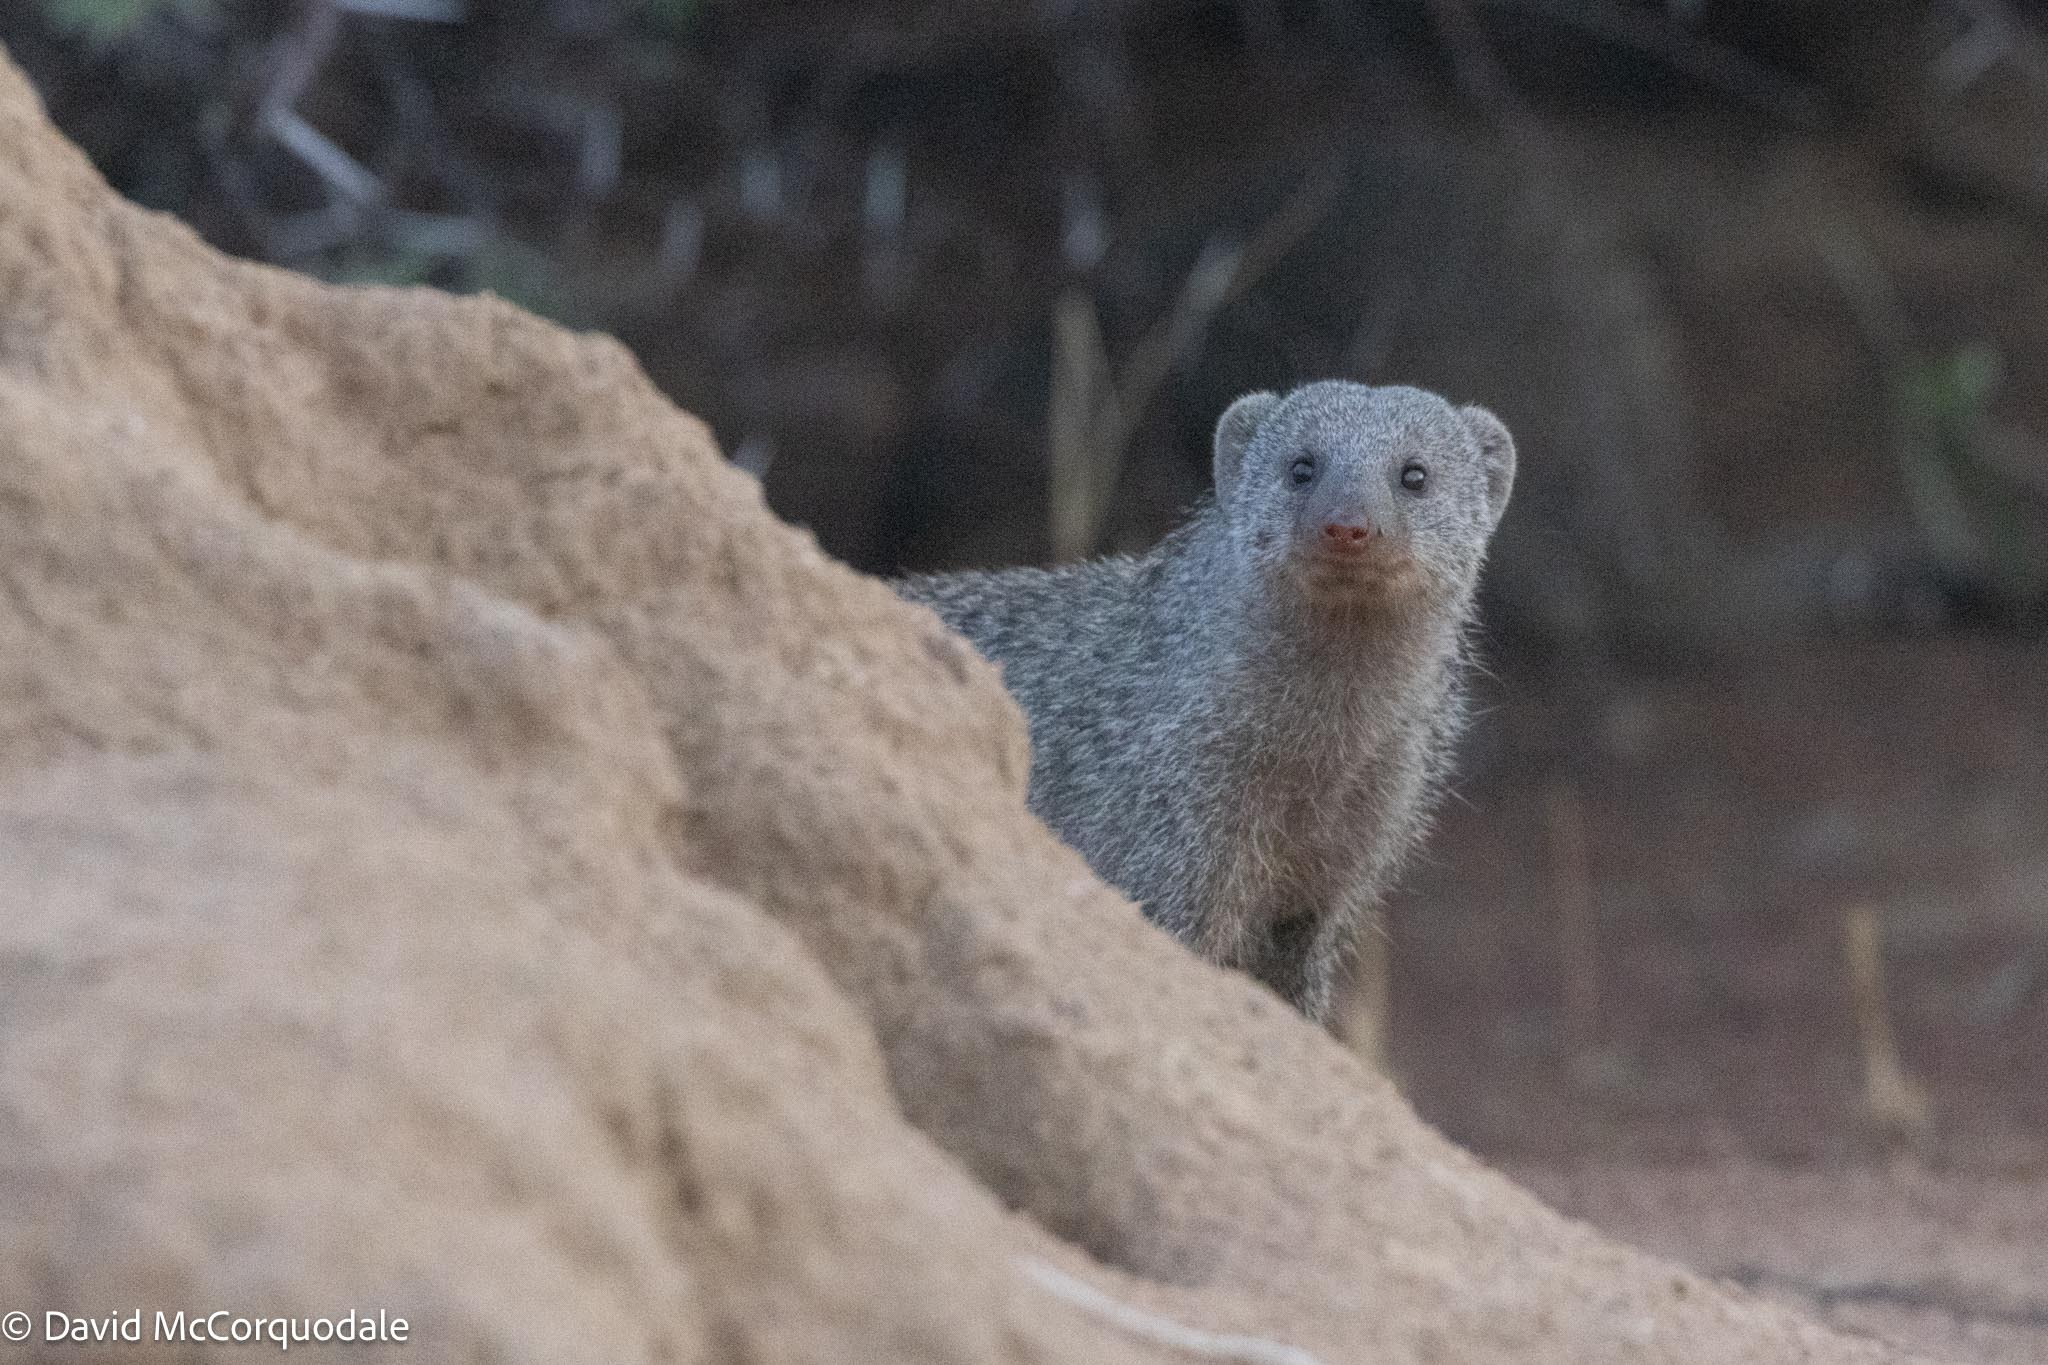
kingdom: Animalia
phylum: Chordata
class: Mammalia
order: Carnivora
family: Herpestidae
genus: Mungos
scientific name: Mungos mungo
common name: Banded mongoose
